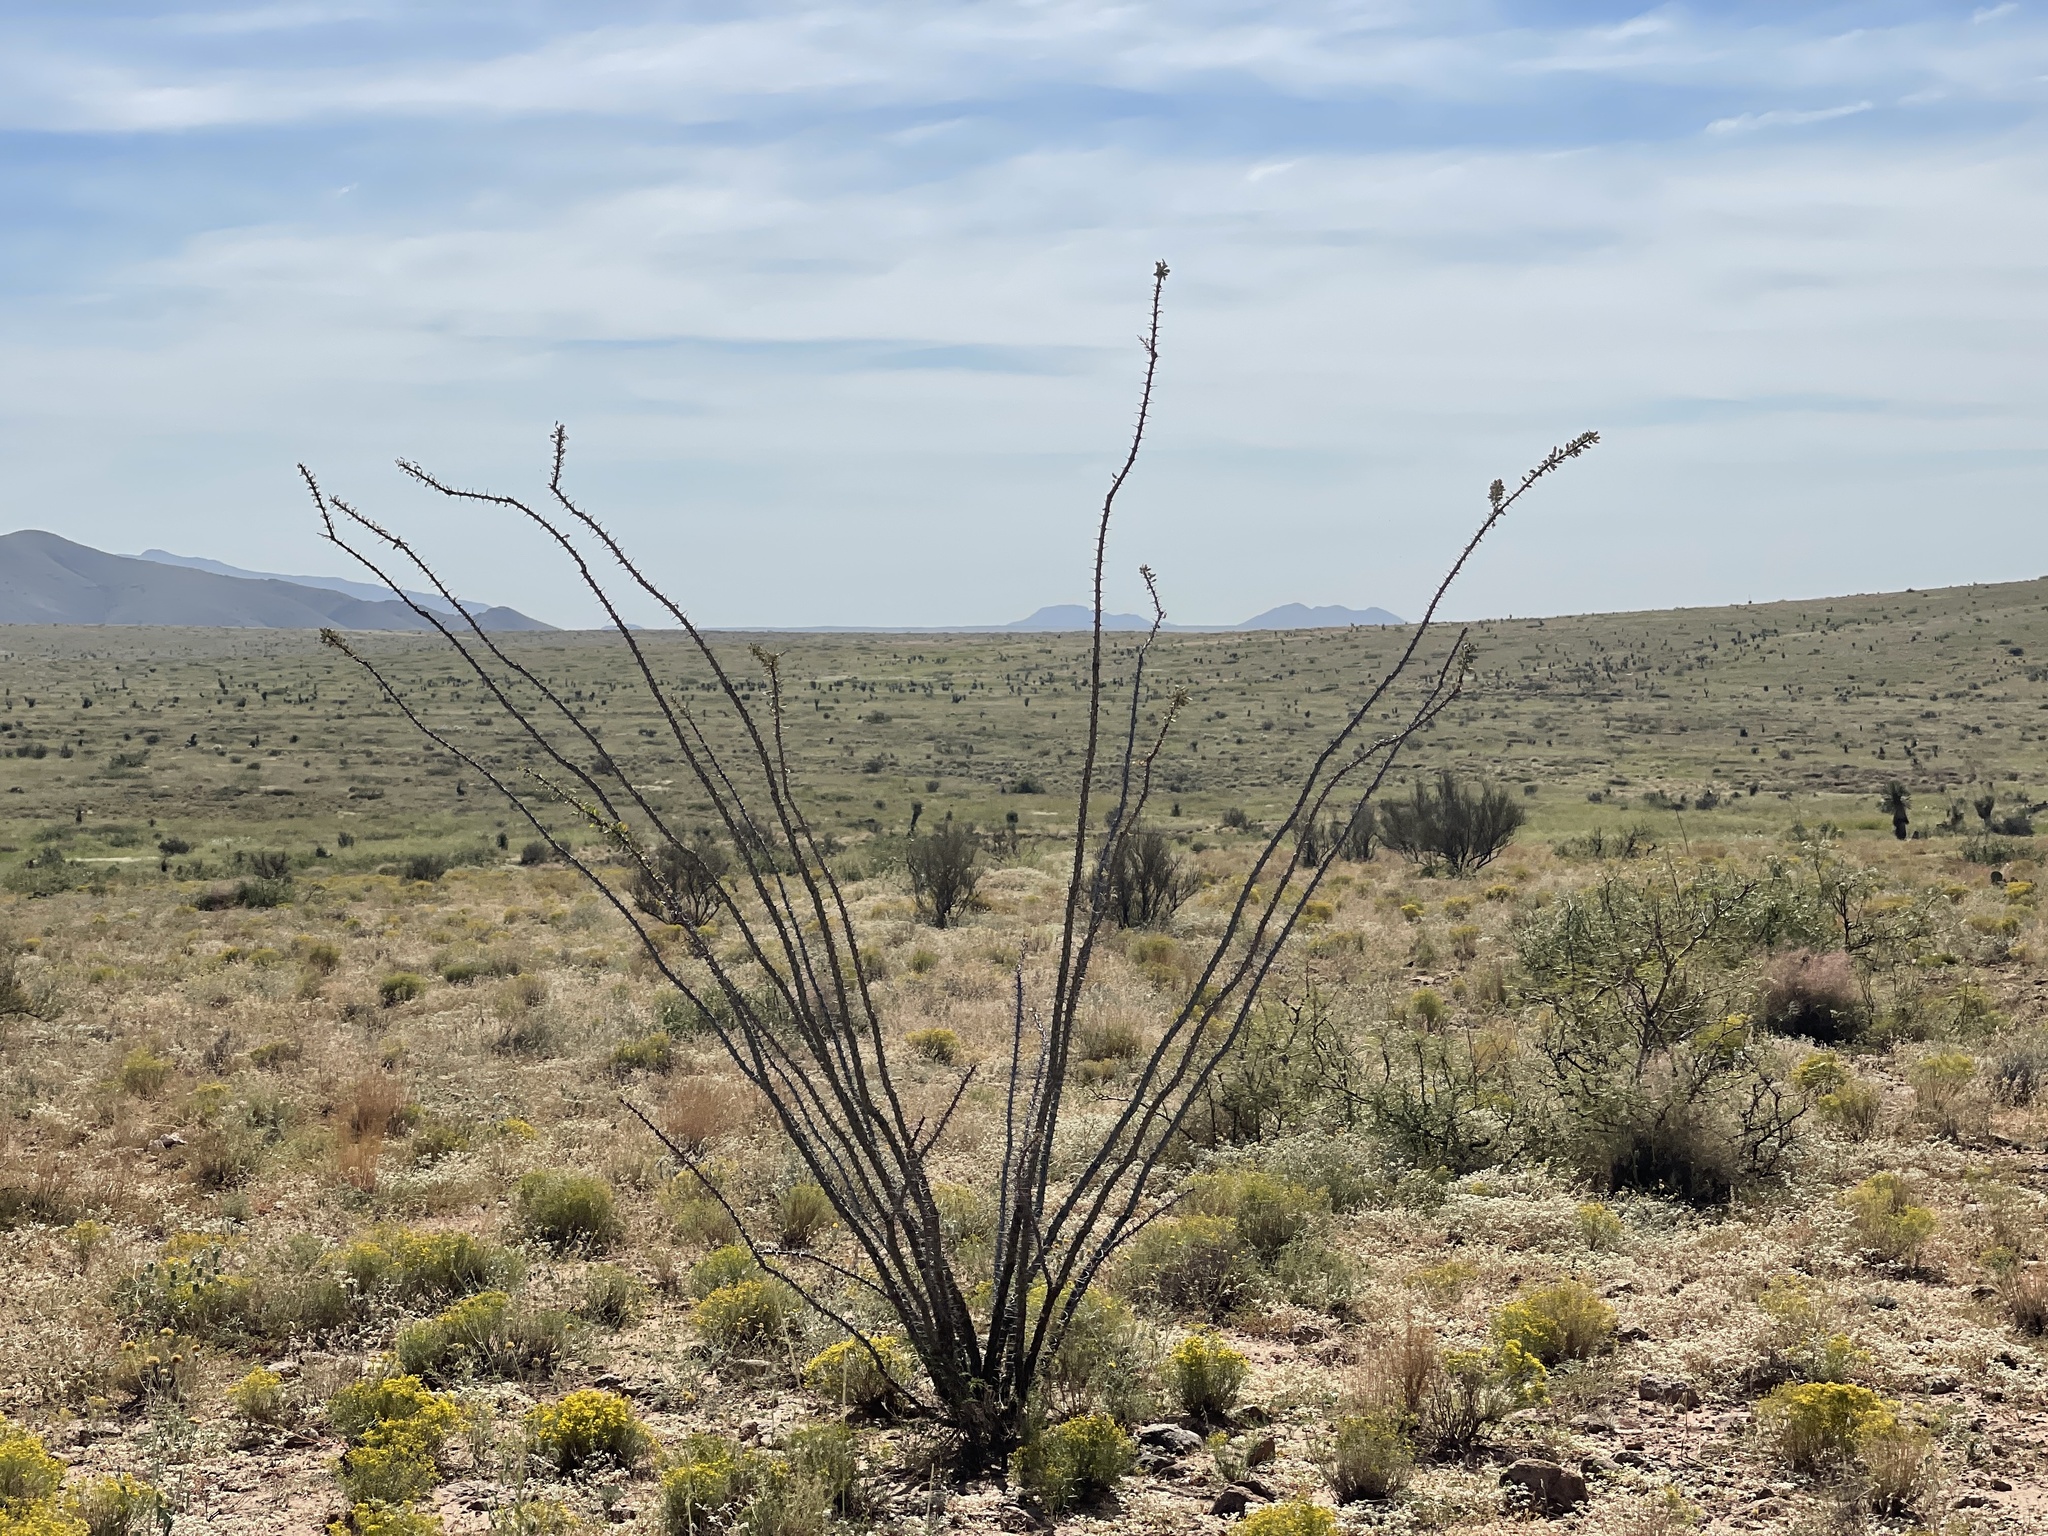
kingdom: Plantae
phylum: Tracheophyta
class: Magnoliopsida
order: Ericales
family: Fouquieriaceae
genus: Fouquieria
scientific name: Fouquieria splendens
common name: Vine-cactus
